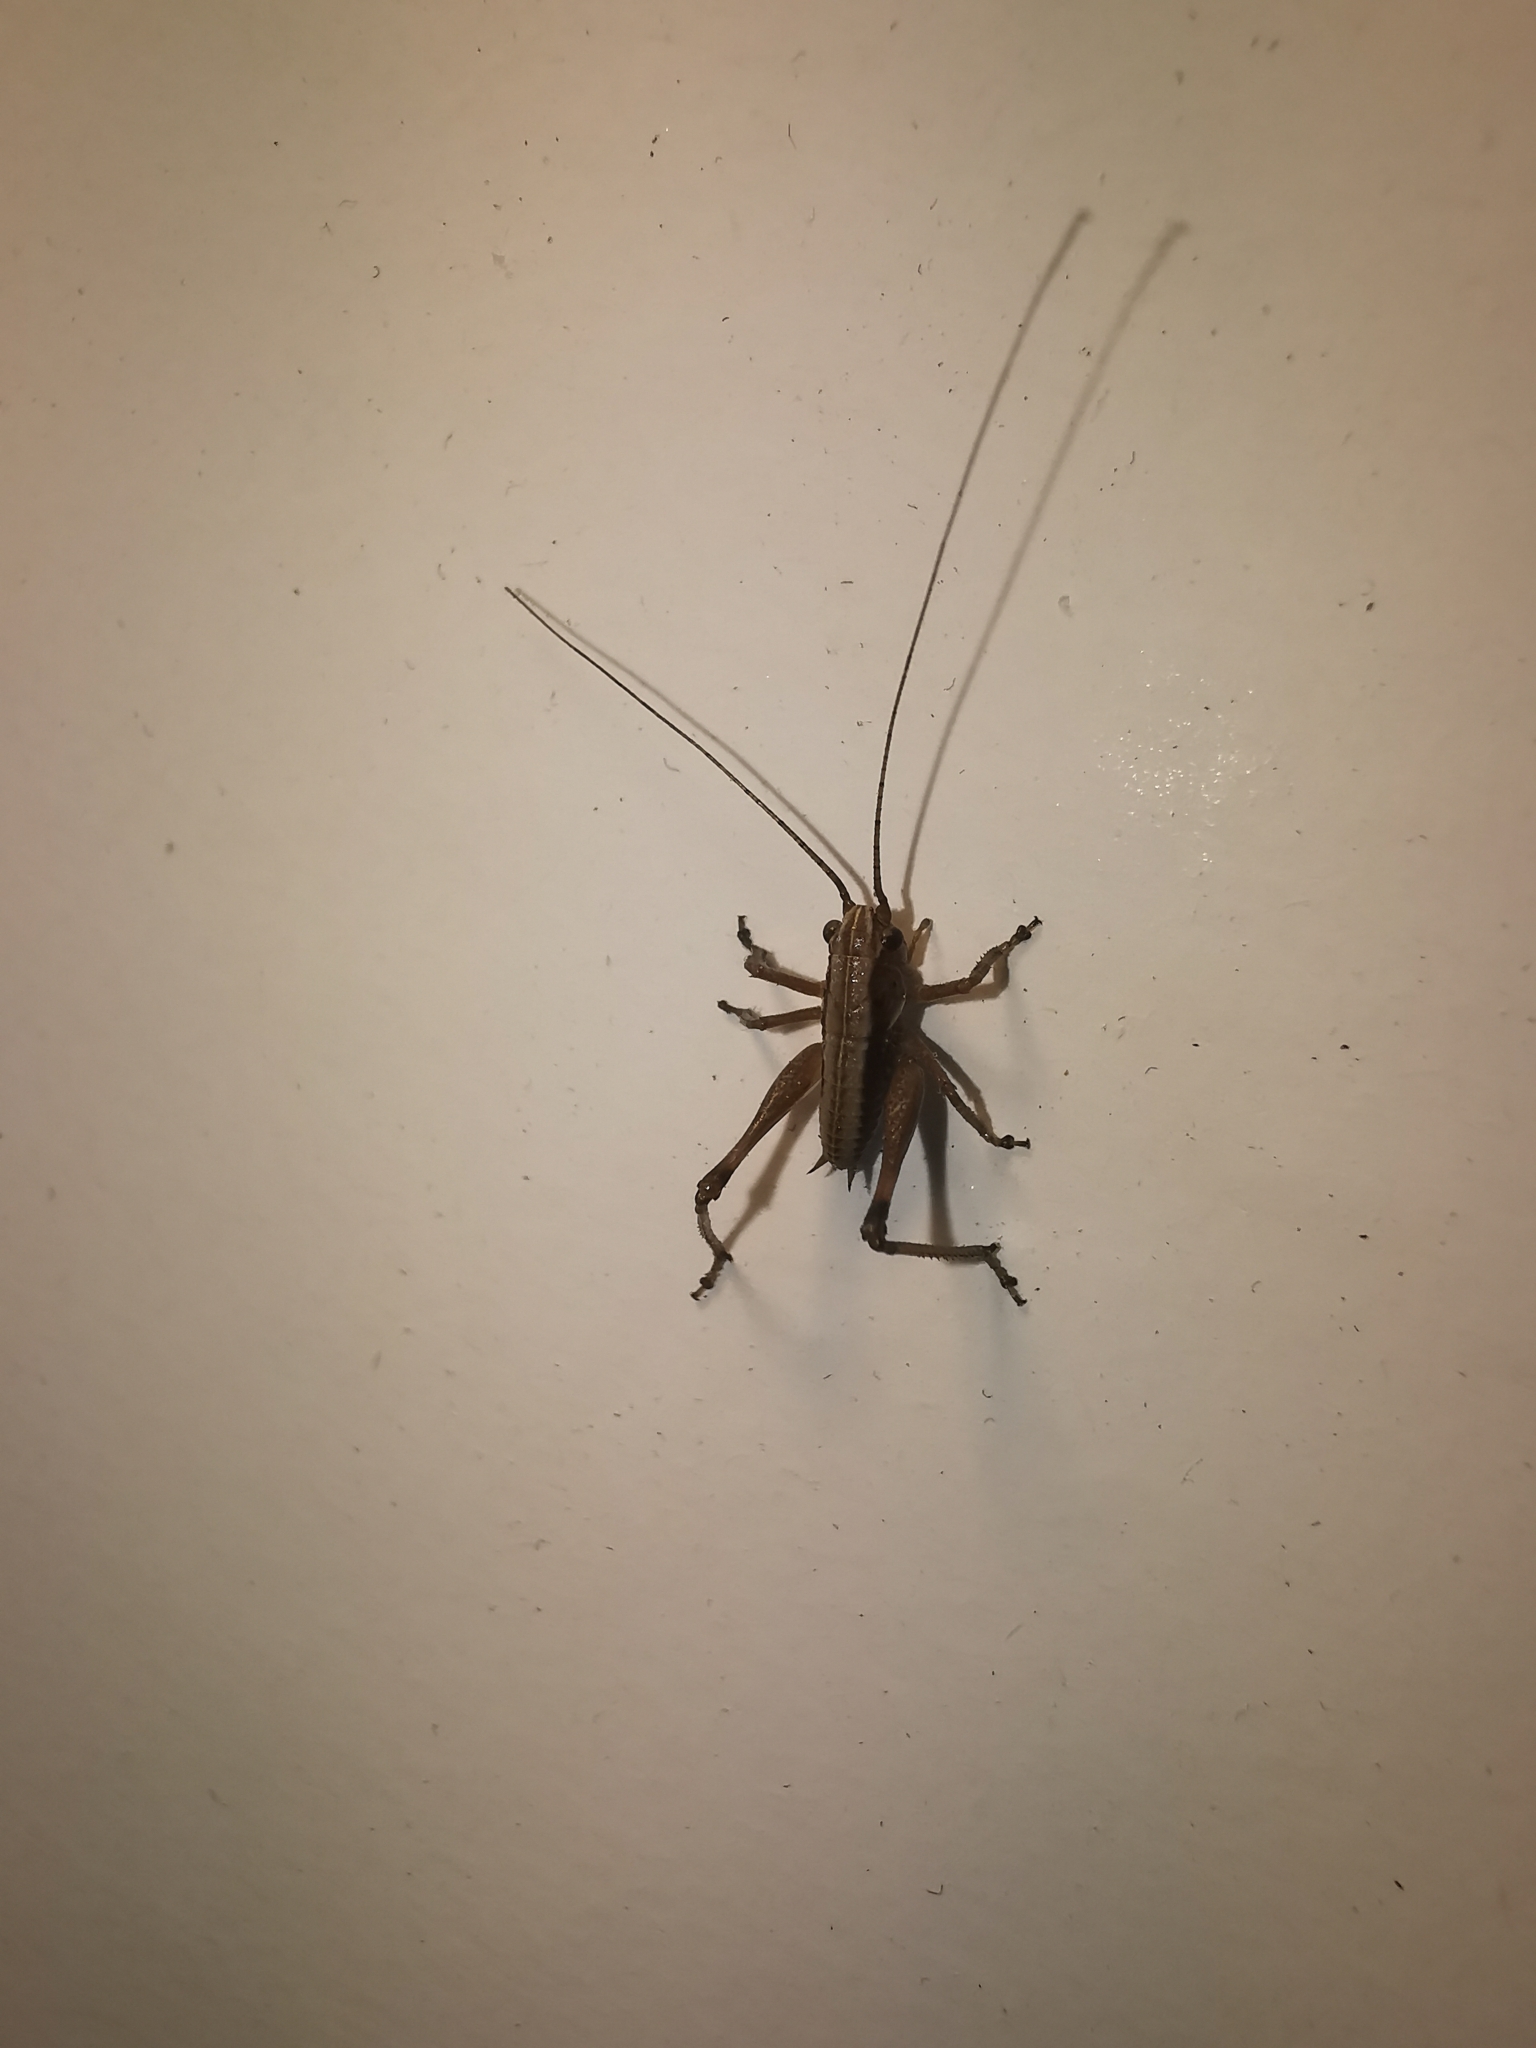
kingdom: Animalia
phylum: Arthropoda
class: Insecta
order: Orthoptera
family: Tettigoniidae
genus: Pholidoptera
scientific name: Pholidoptera griseoaptera
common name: Dark bush-cricket
